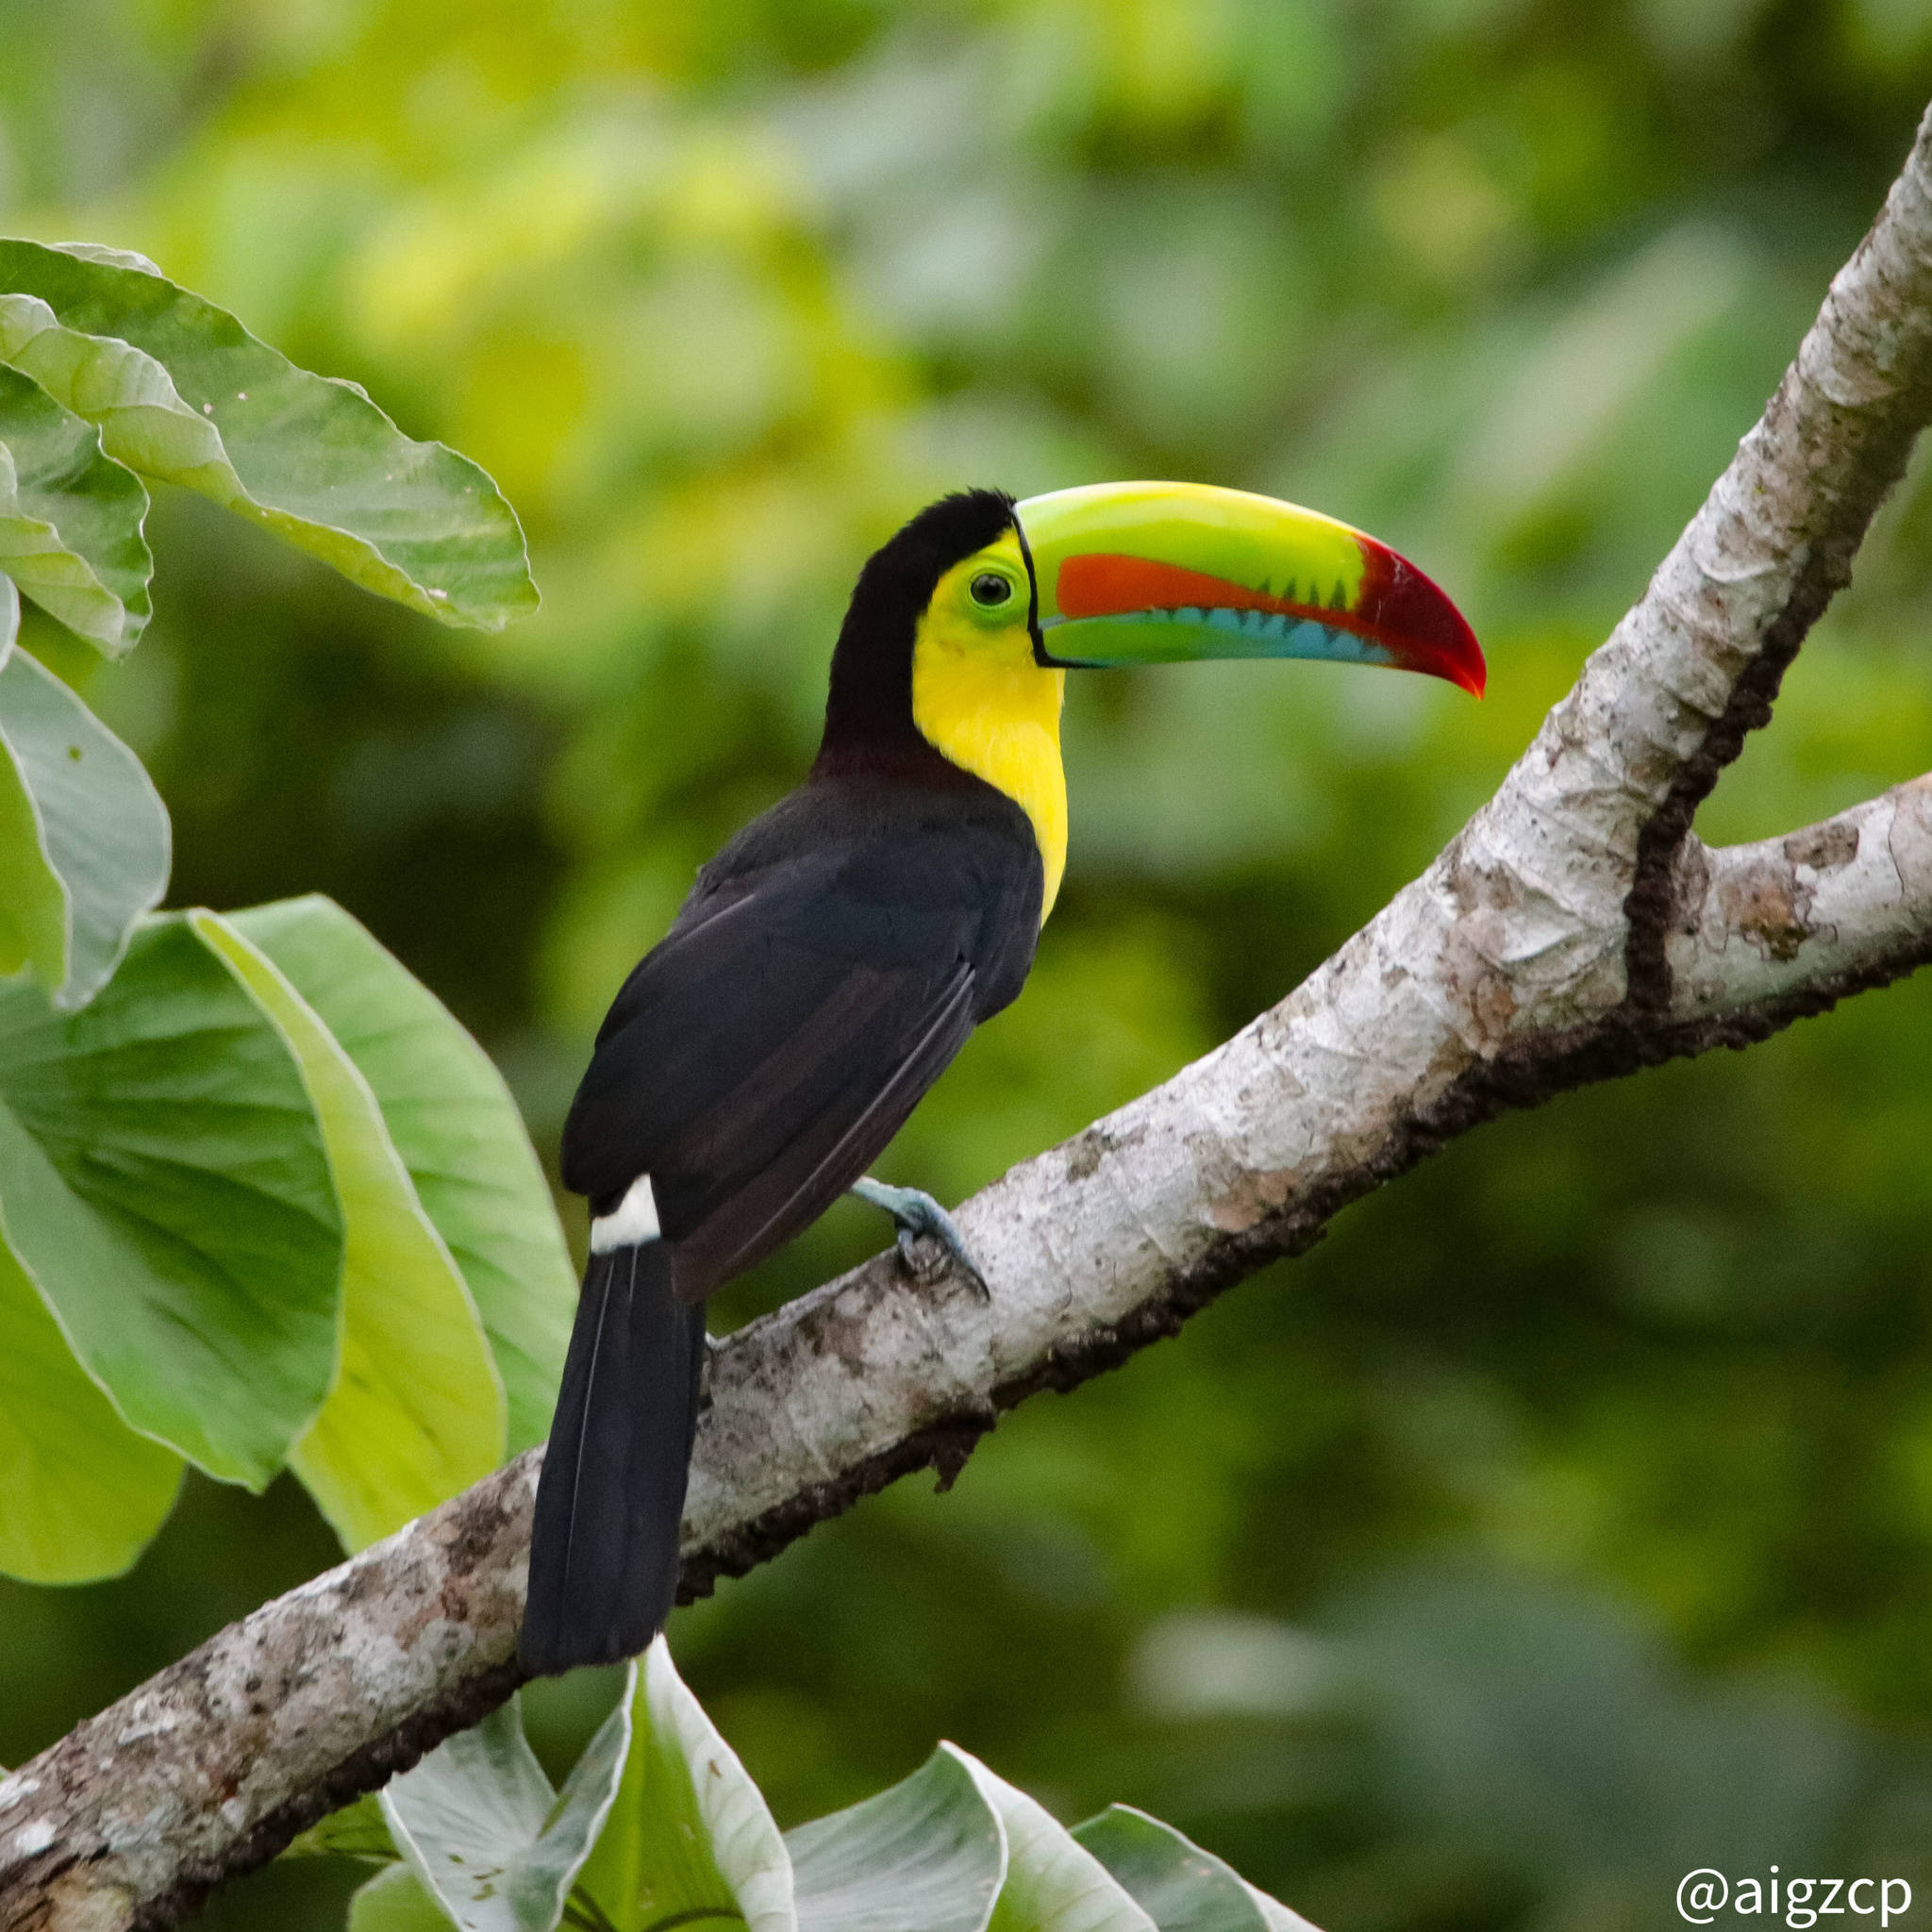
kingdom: Animalia
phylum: Chordata
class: Aves
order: Piciformes
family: Ramphastidae
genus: Ramphastos
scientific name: Ramphastos sulfuratus
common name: Keel-billed toucan
